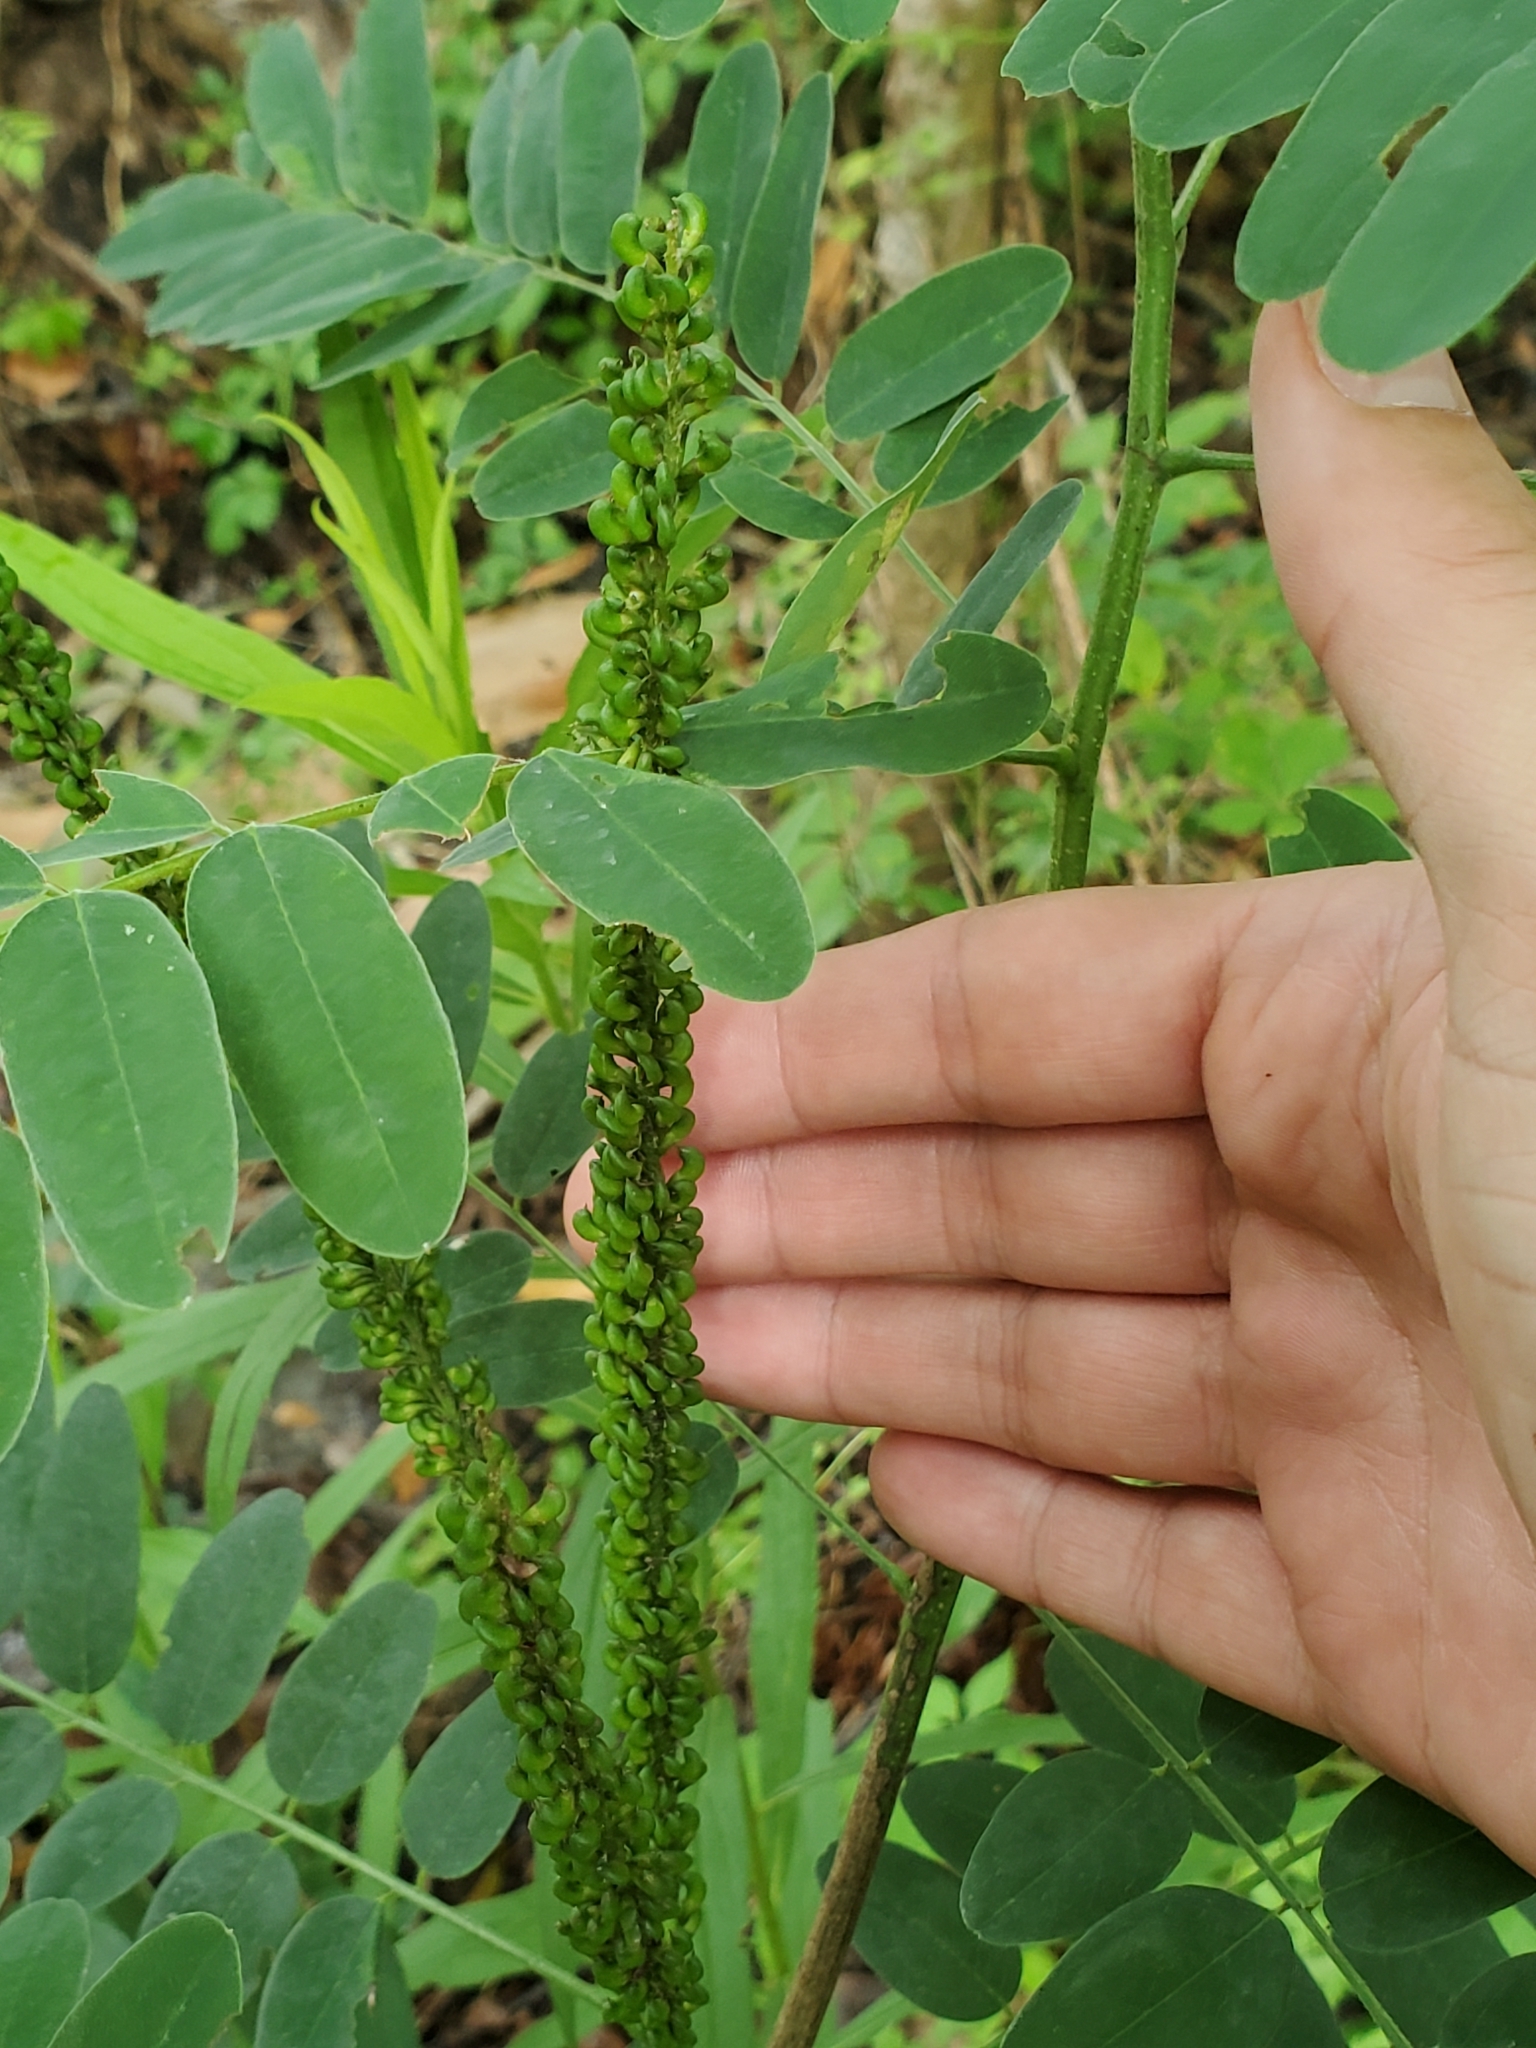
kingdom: Plantae
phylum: Tracheophyta
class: Magnoliopsida
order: Fabales
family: Fabaceae
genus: Amorpha
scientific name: Amorpha fruticosa
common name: False indigo
